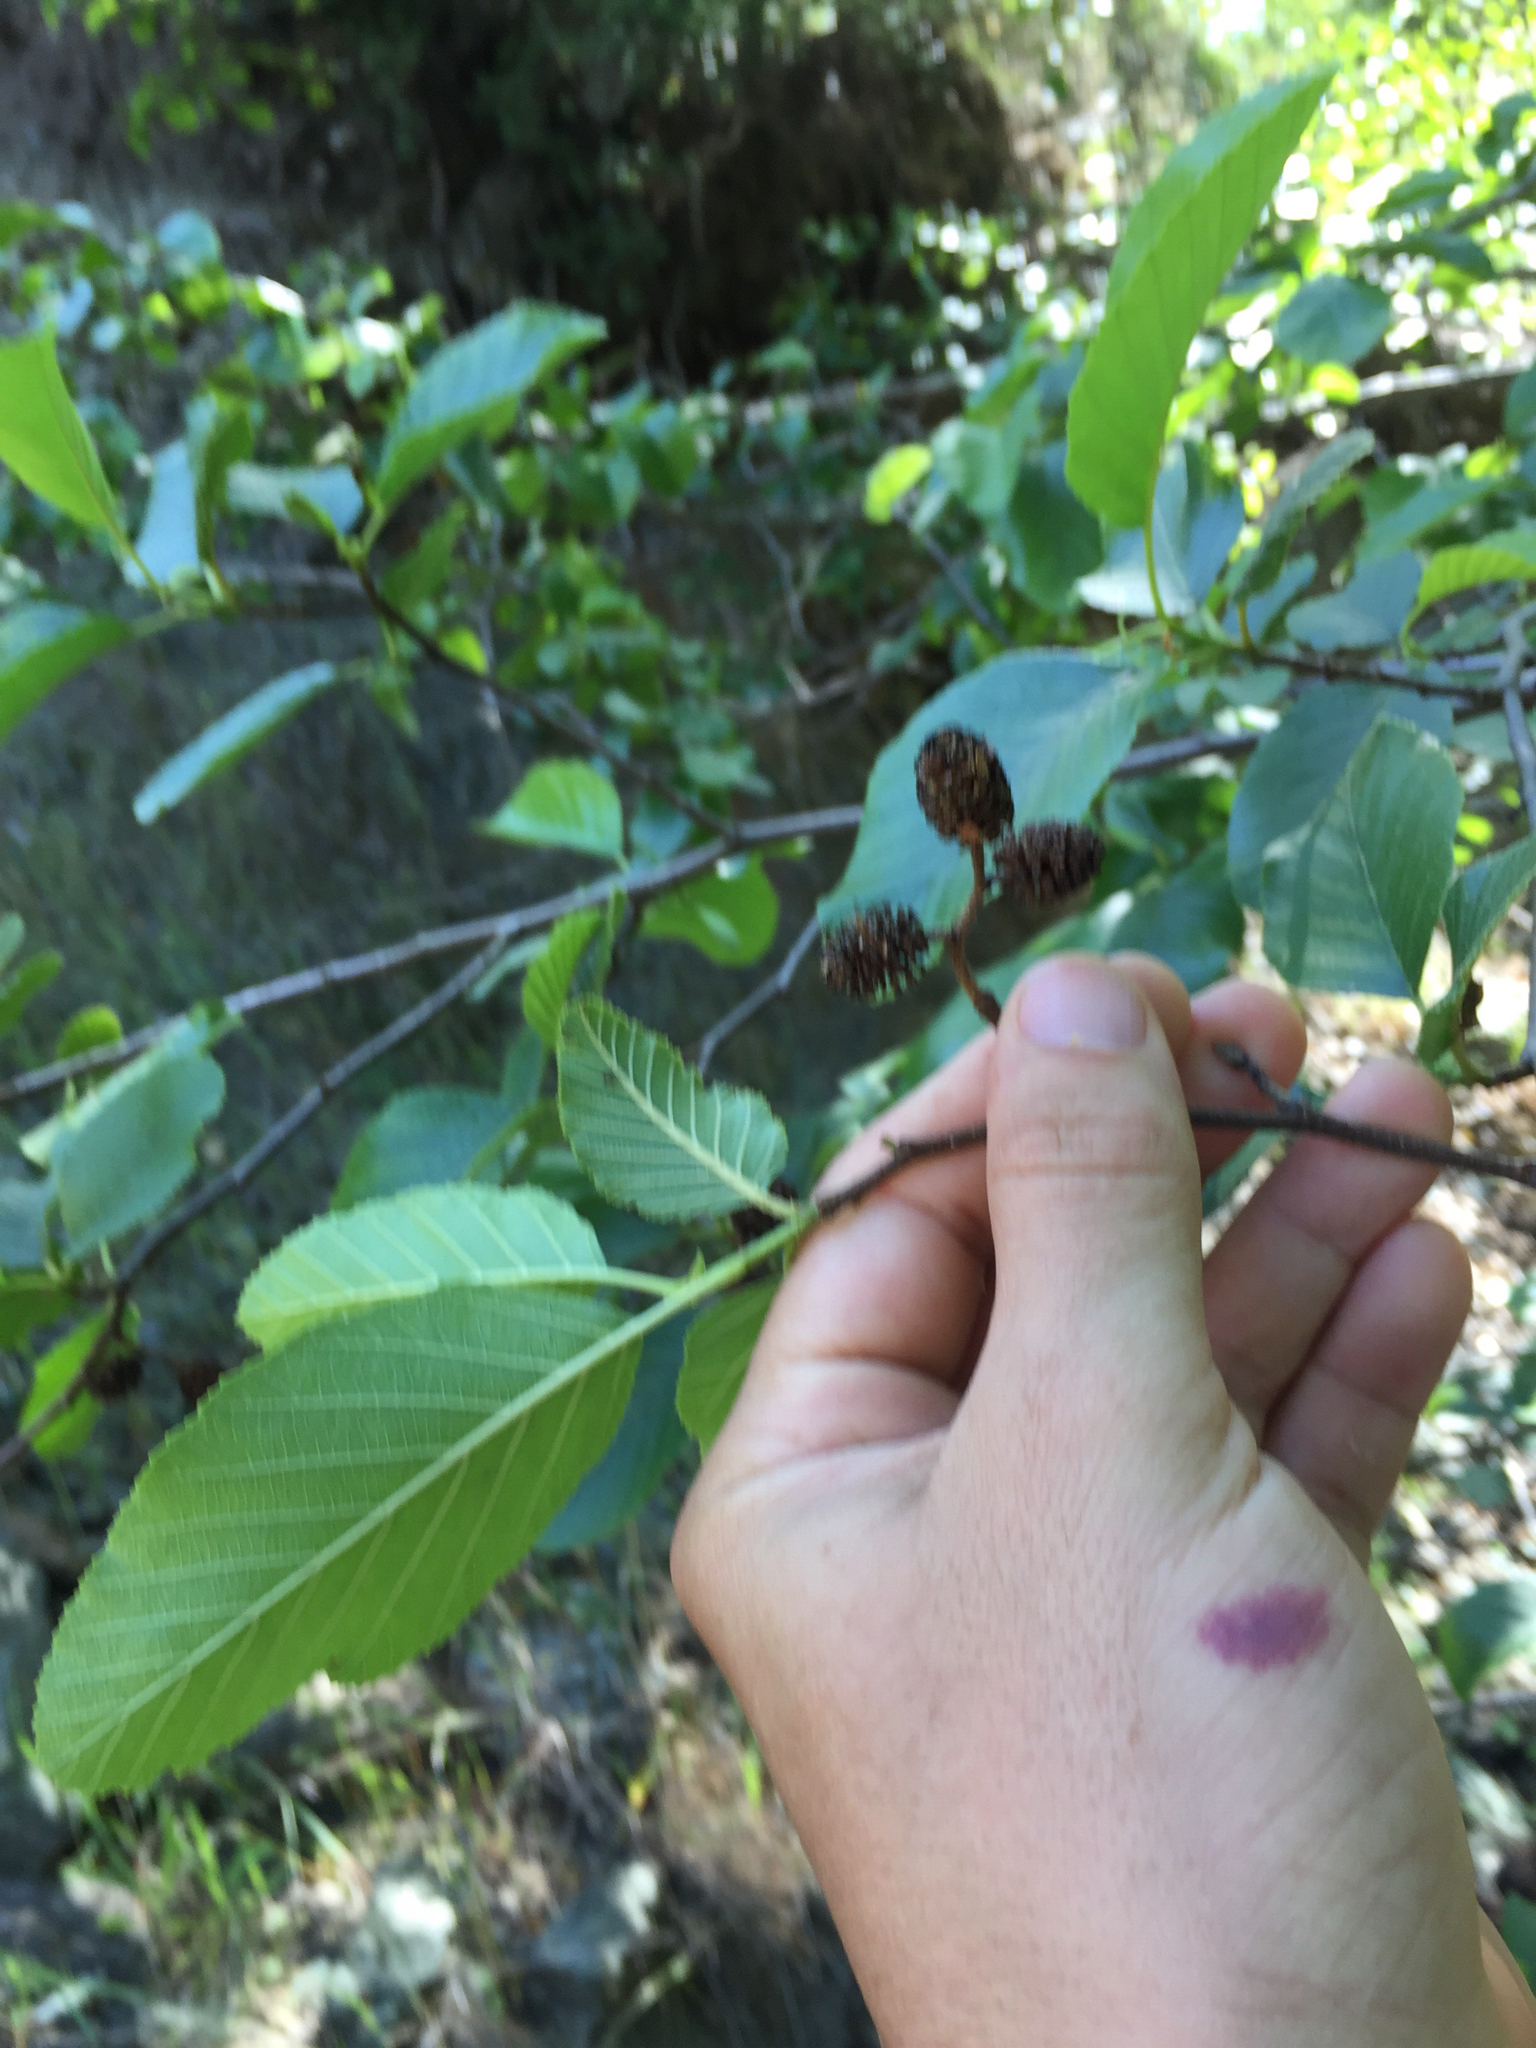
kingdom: Plantae
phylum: Tracheophyta
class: Magnoliopsida
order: Fagales
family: Betulaceae
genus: Alnus
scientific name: Alnus rhombifolia
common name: California alder
